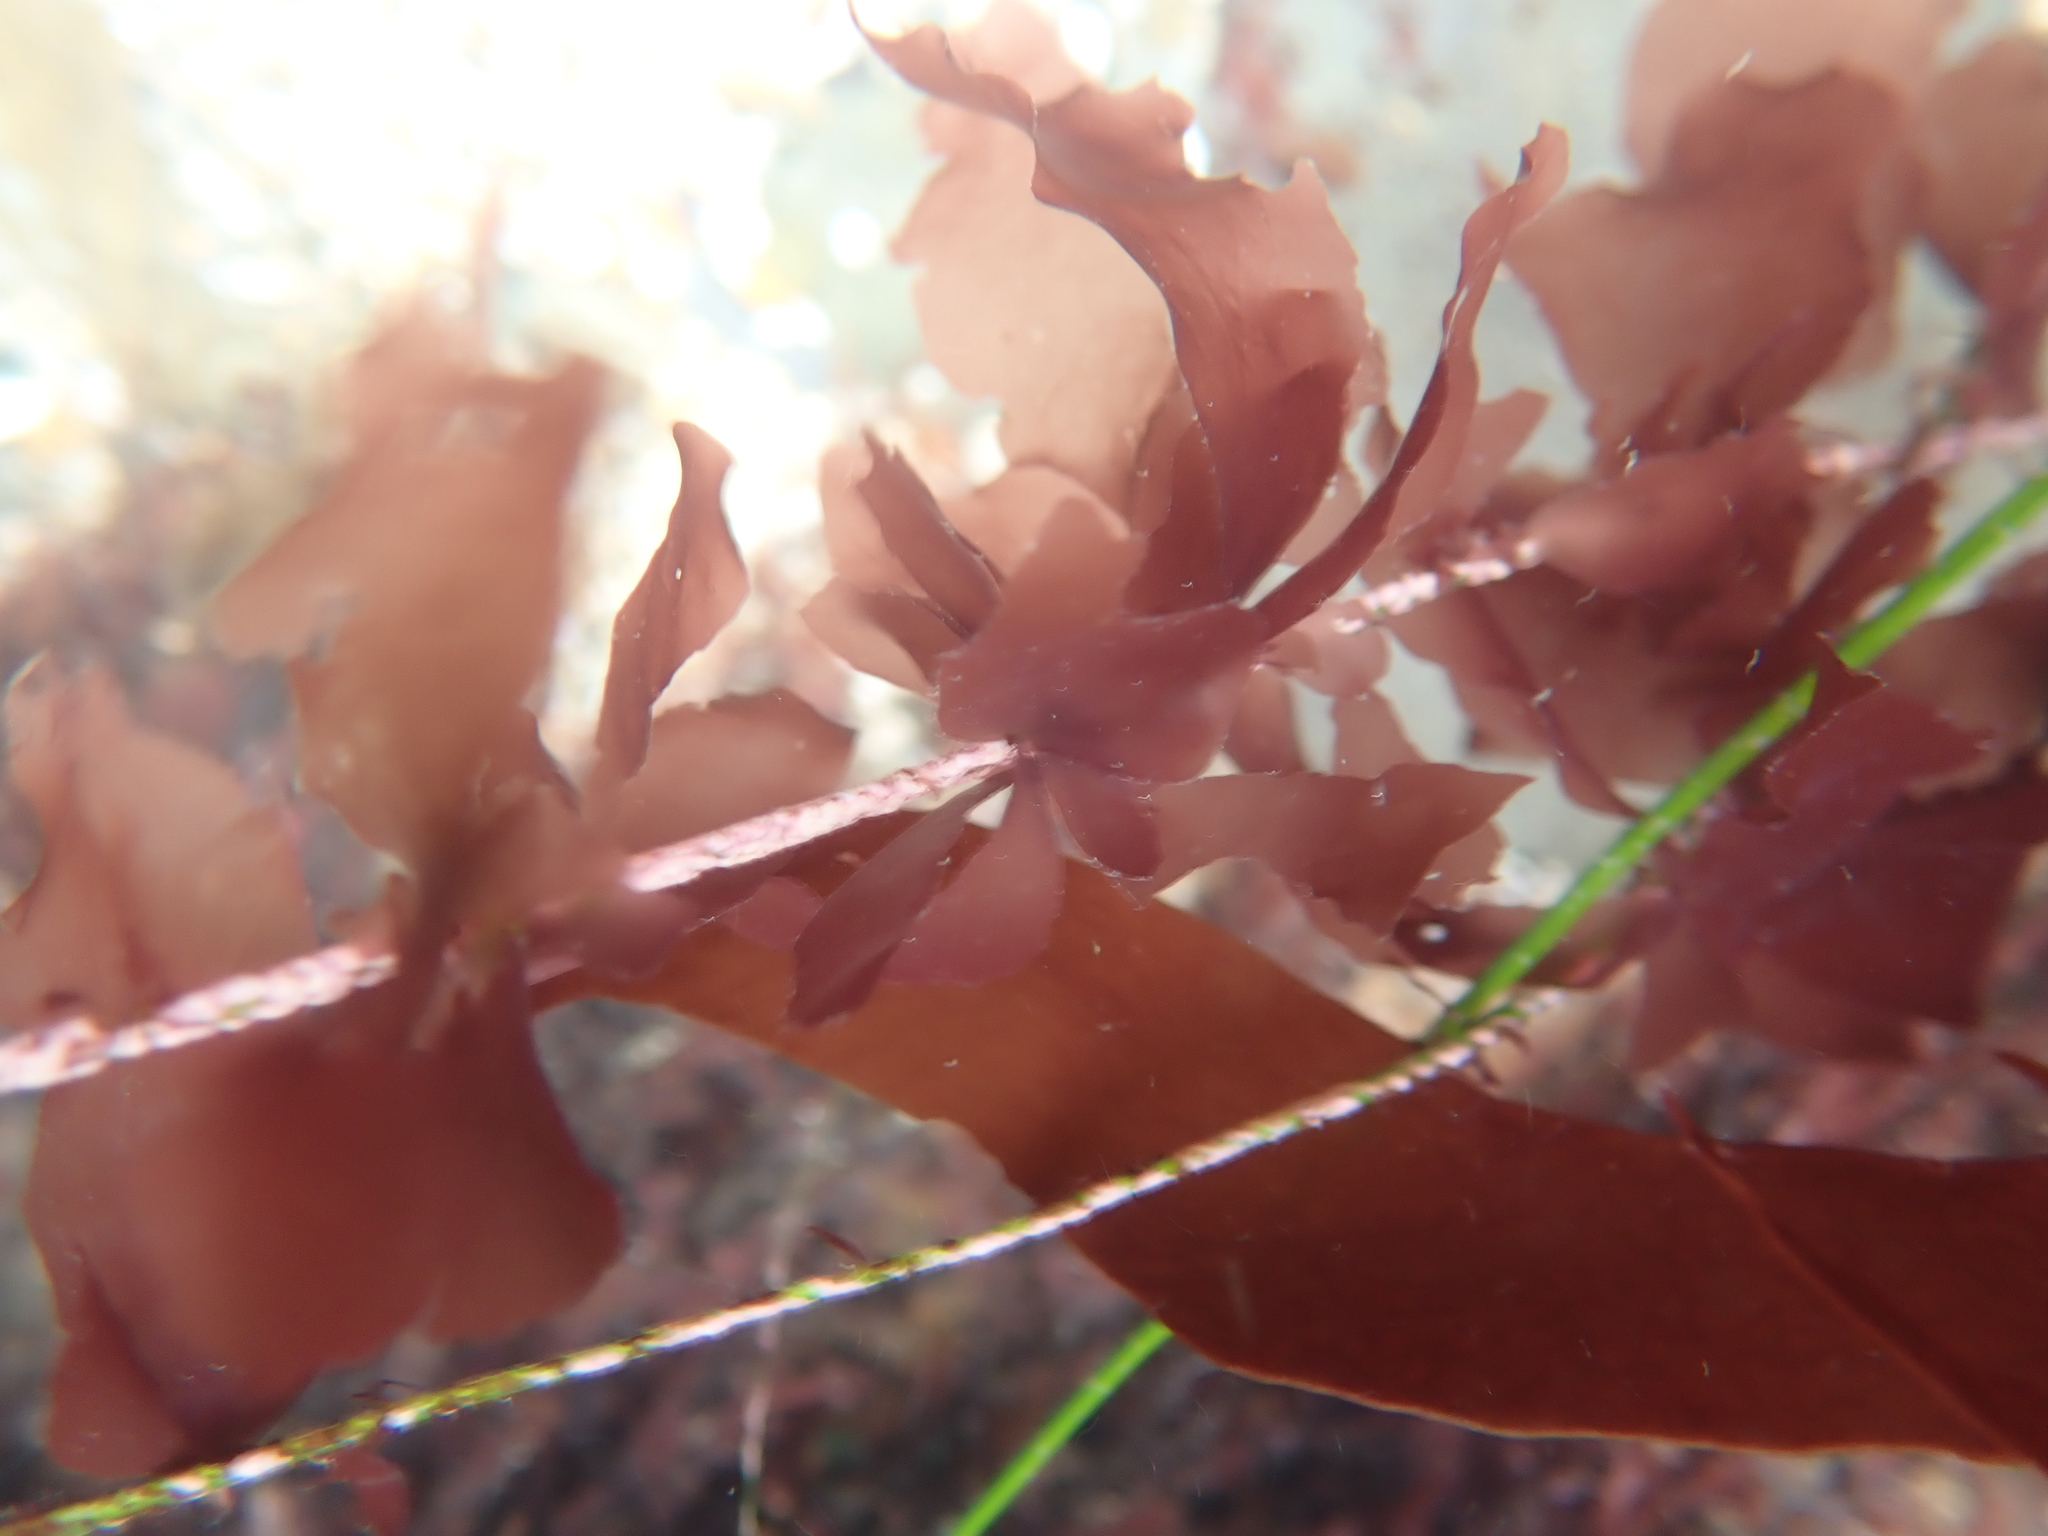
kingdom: Plantae
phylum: Rhodophyta
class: Compsopogonophyceae
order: Erythropeltidales
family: Erythrotrichiaceae
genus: Smithora
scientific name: Smithora naiadum
